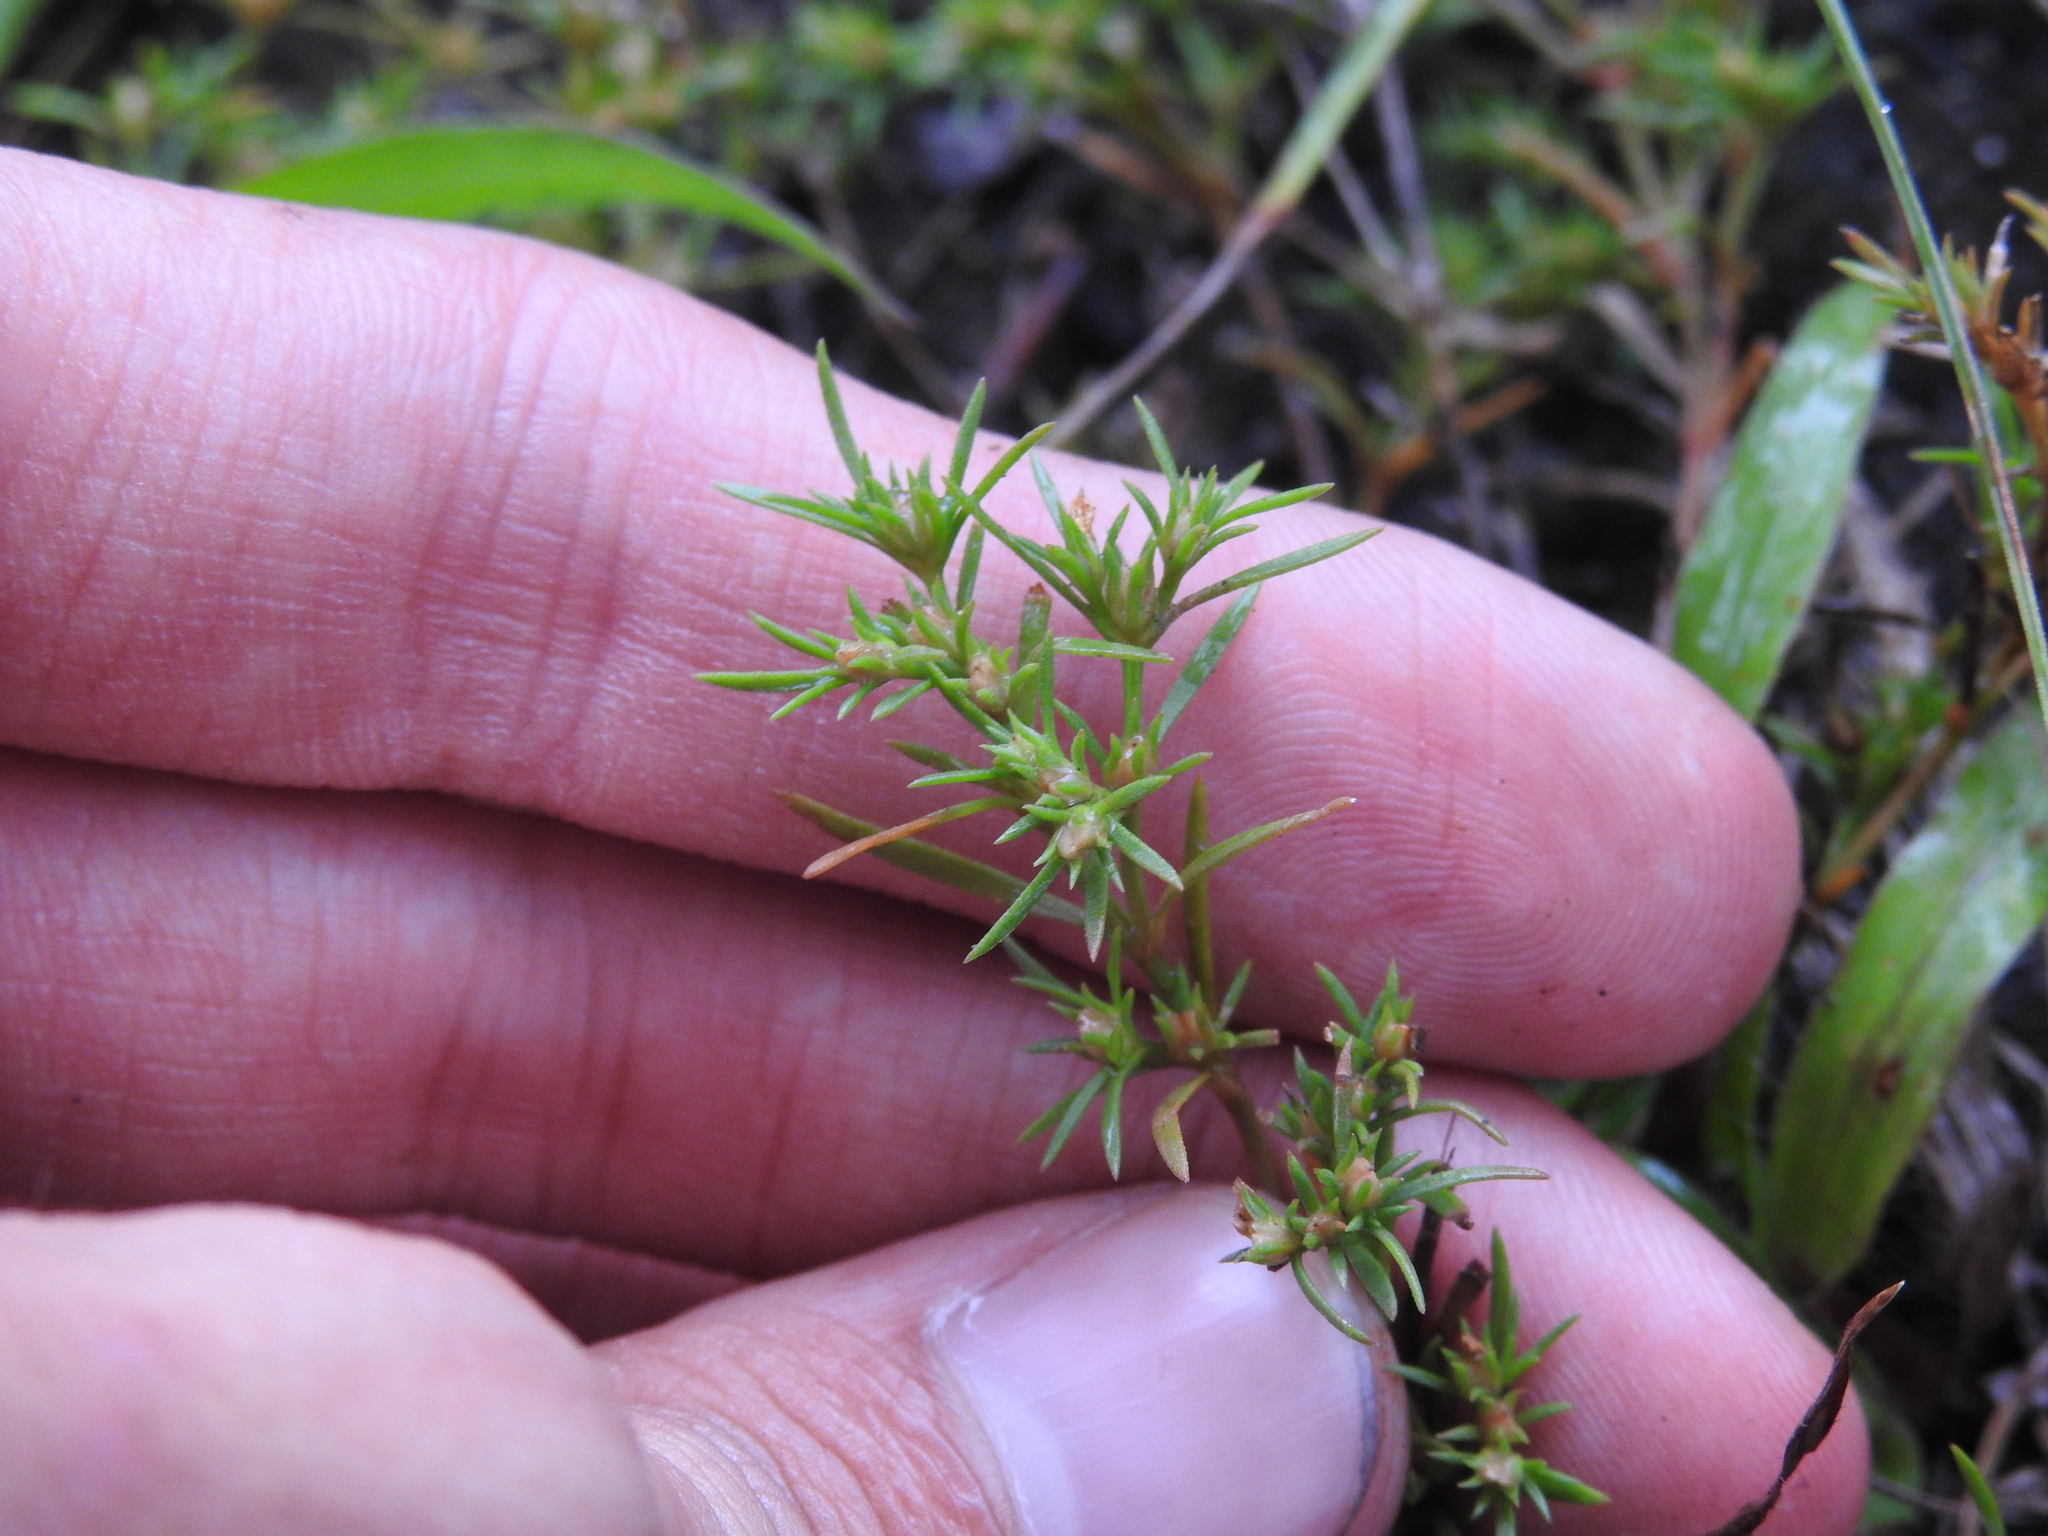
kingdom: Plantae
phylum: Tracheophyta
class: Magnoliopsida
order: Lamiales
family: Tetrachondraceae
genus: Polypremum
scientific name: Polypremum procumbens
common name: Juniper-leaf
